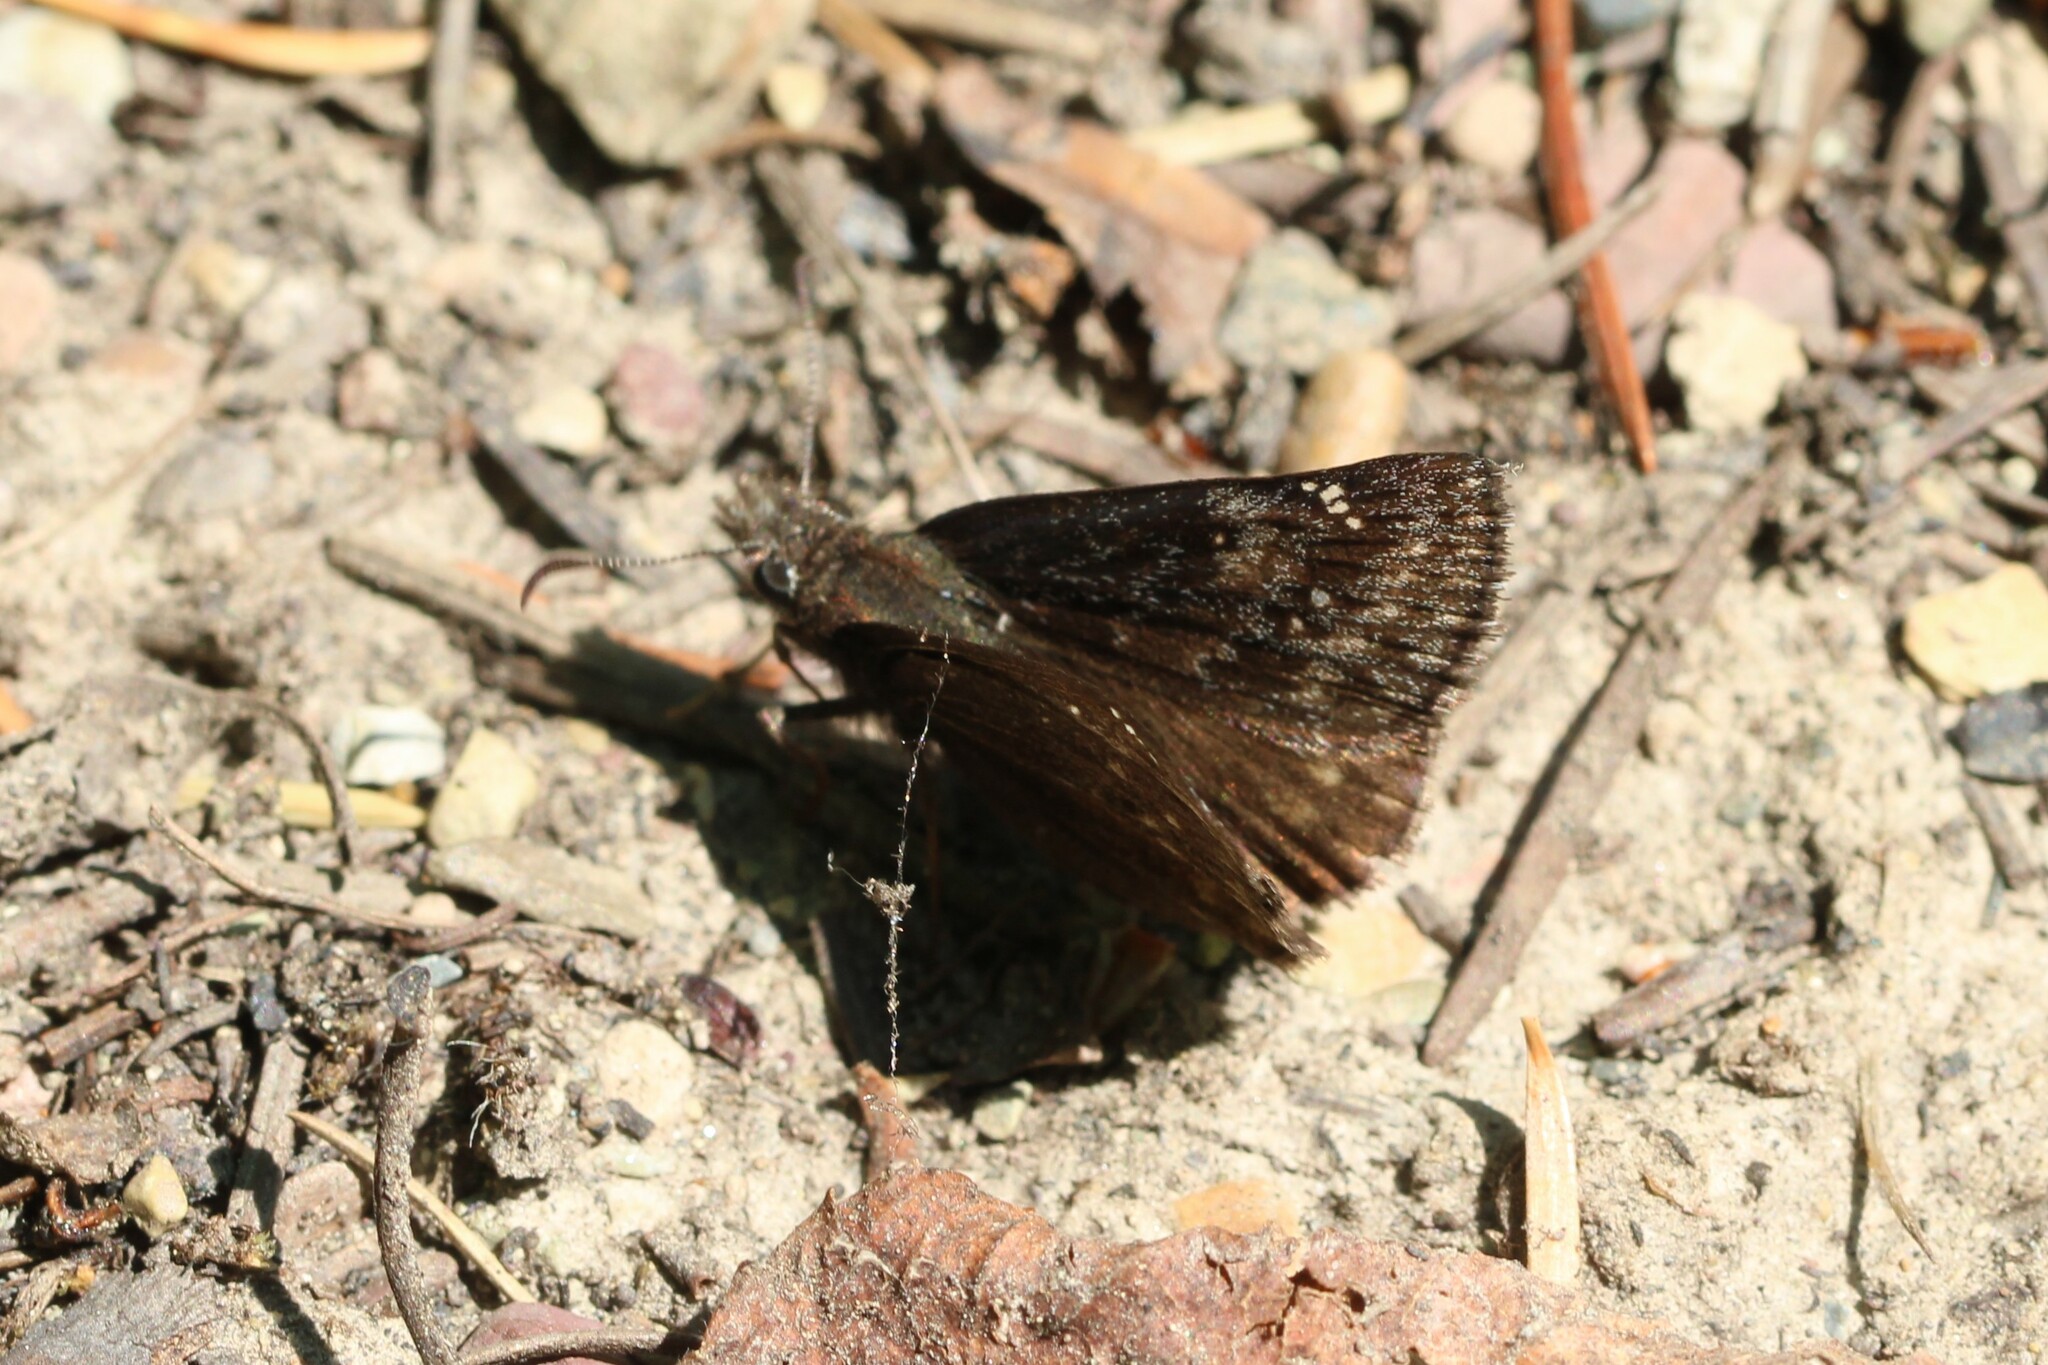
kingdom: Animalia
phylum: Arthropoda
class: Insecta
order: Lepidoptera
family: Hesperiidae
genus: Erynnis
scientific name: Erynnis persius
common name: Persius duskywing
